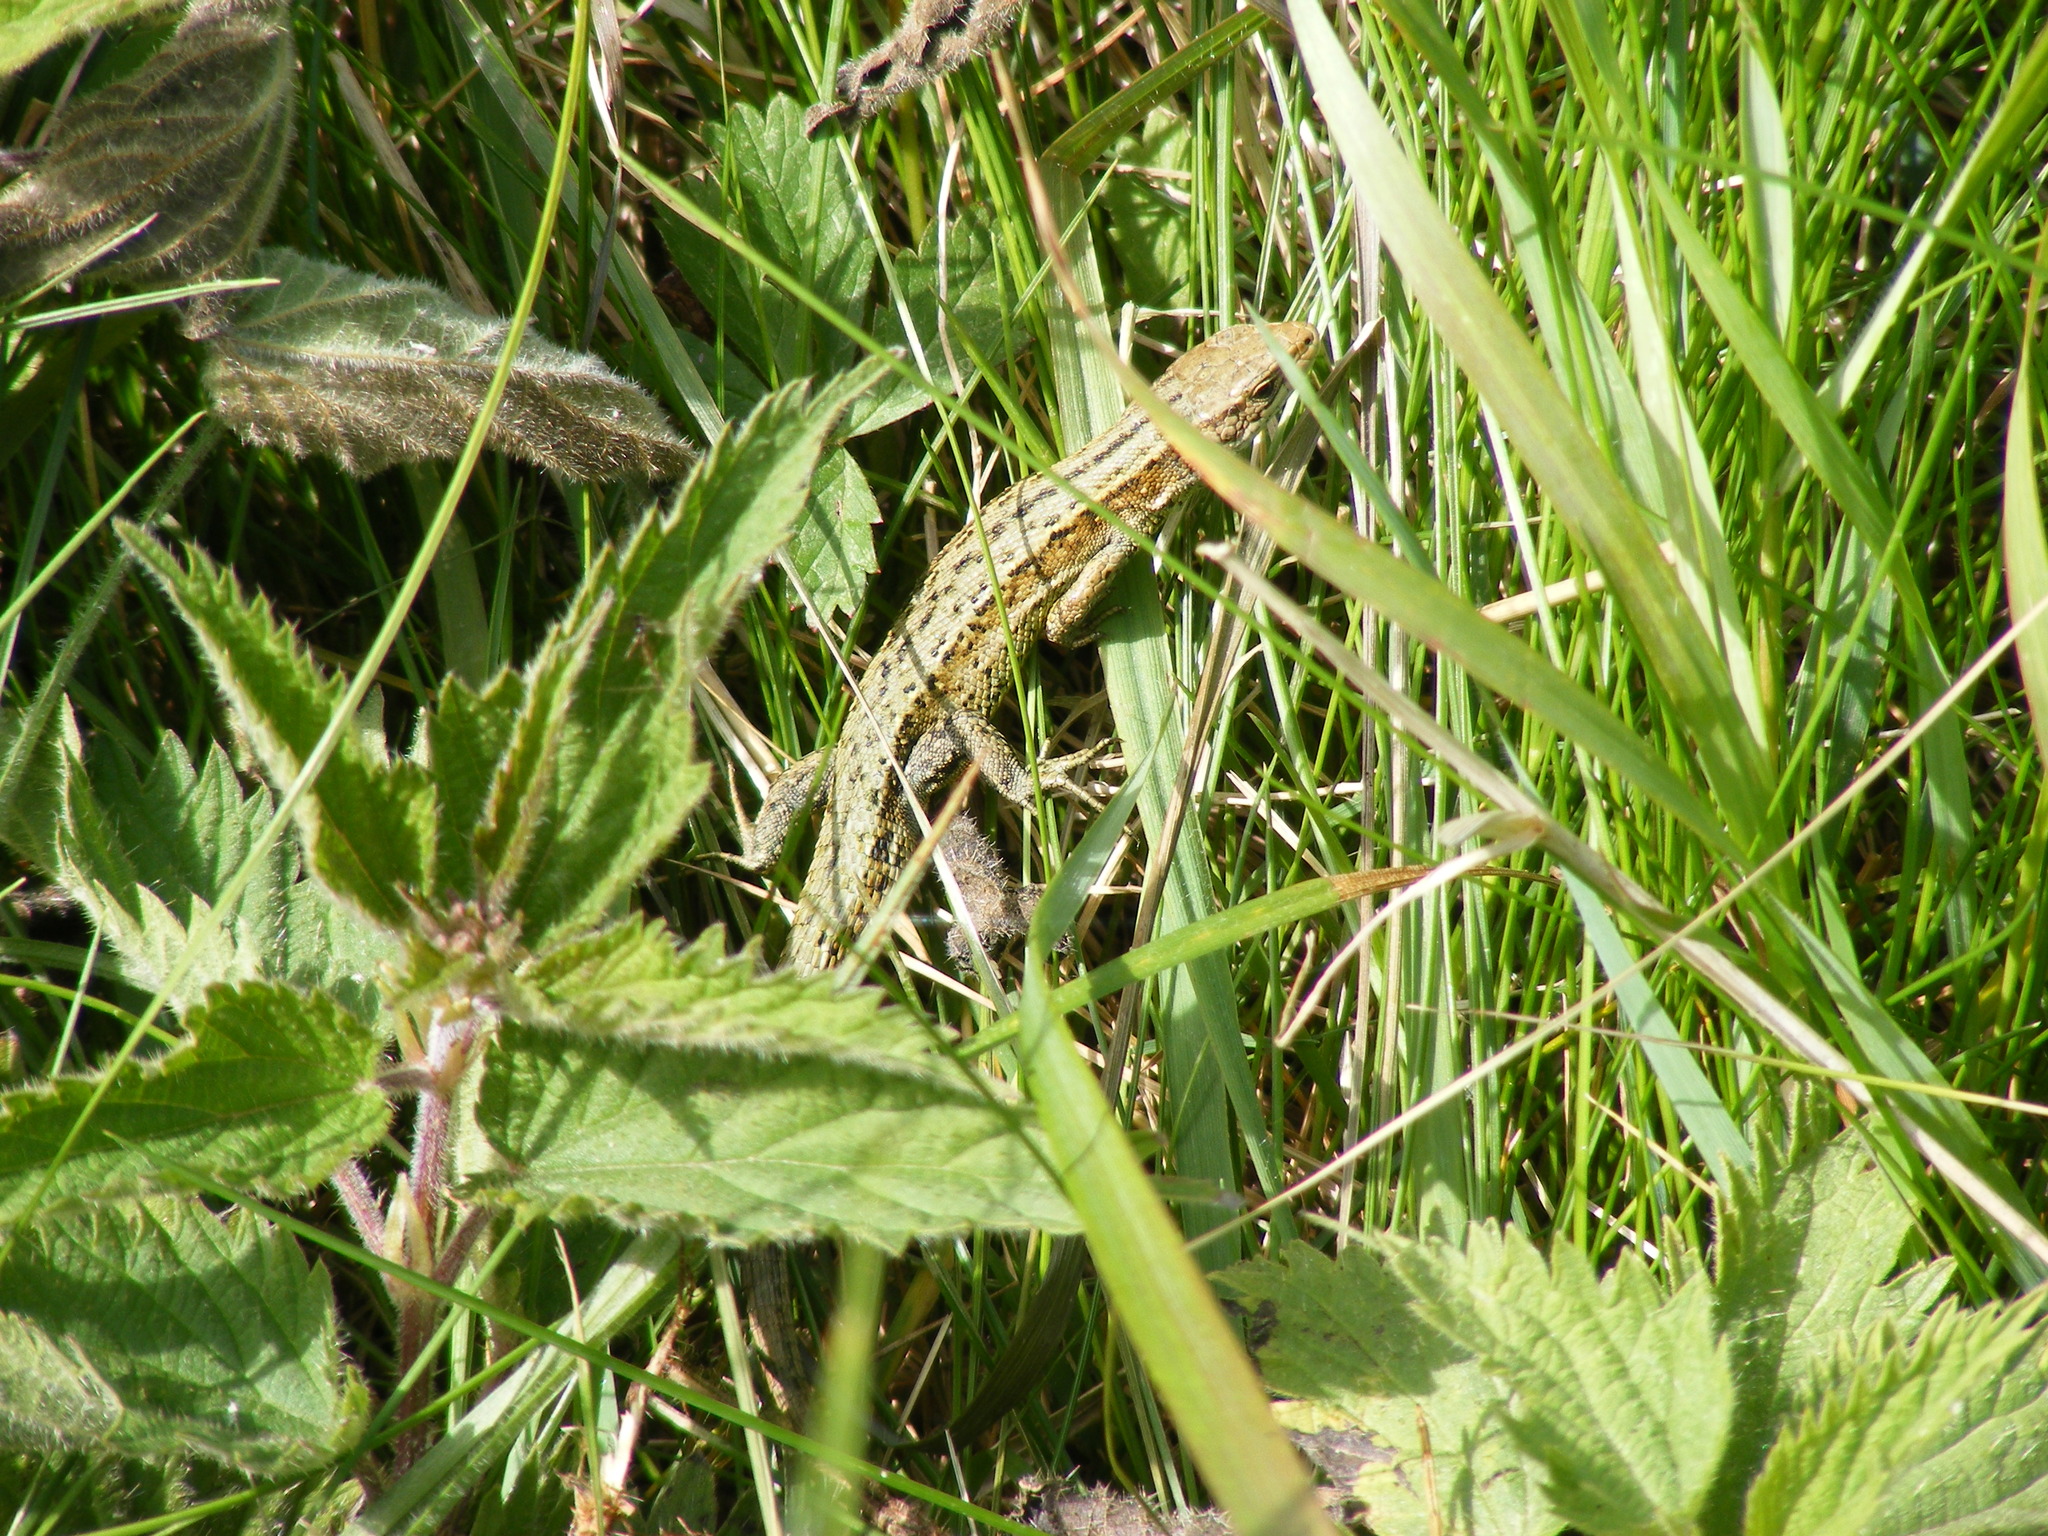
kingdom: Animalia
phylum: Chordata
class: Squamata
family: Lacertidae
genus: Zootoca
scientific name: Zootoca vivipara
